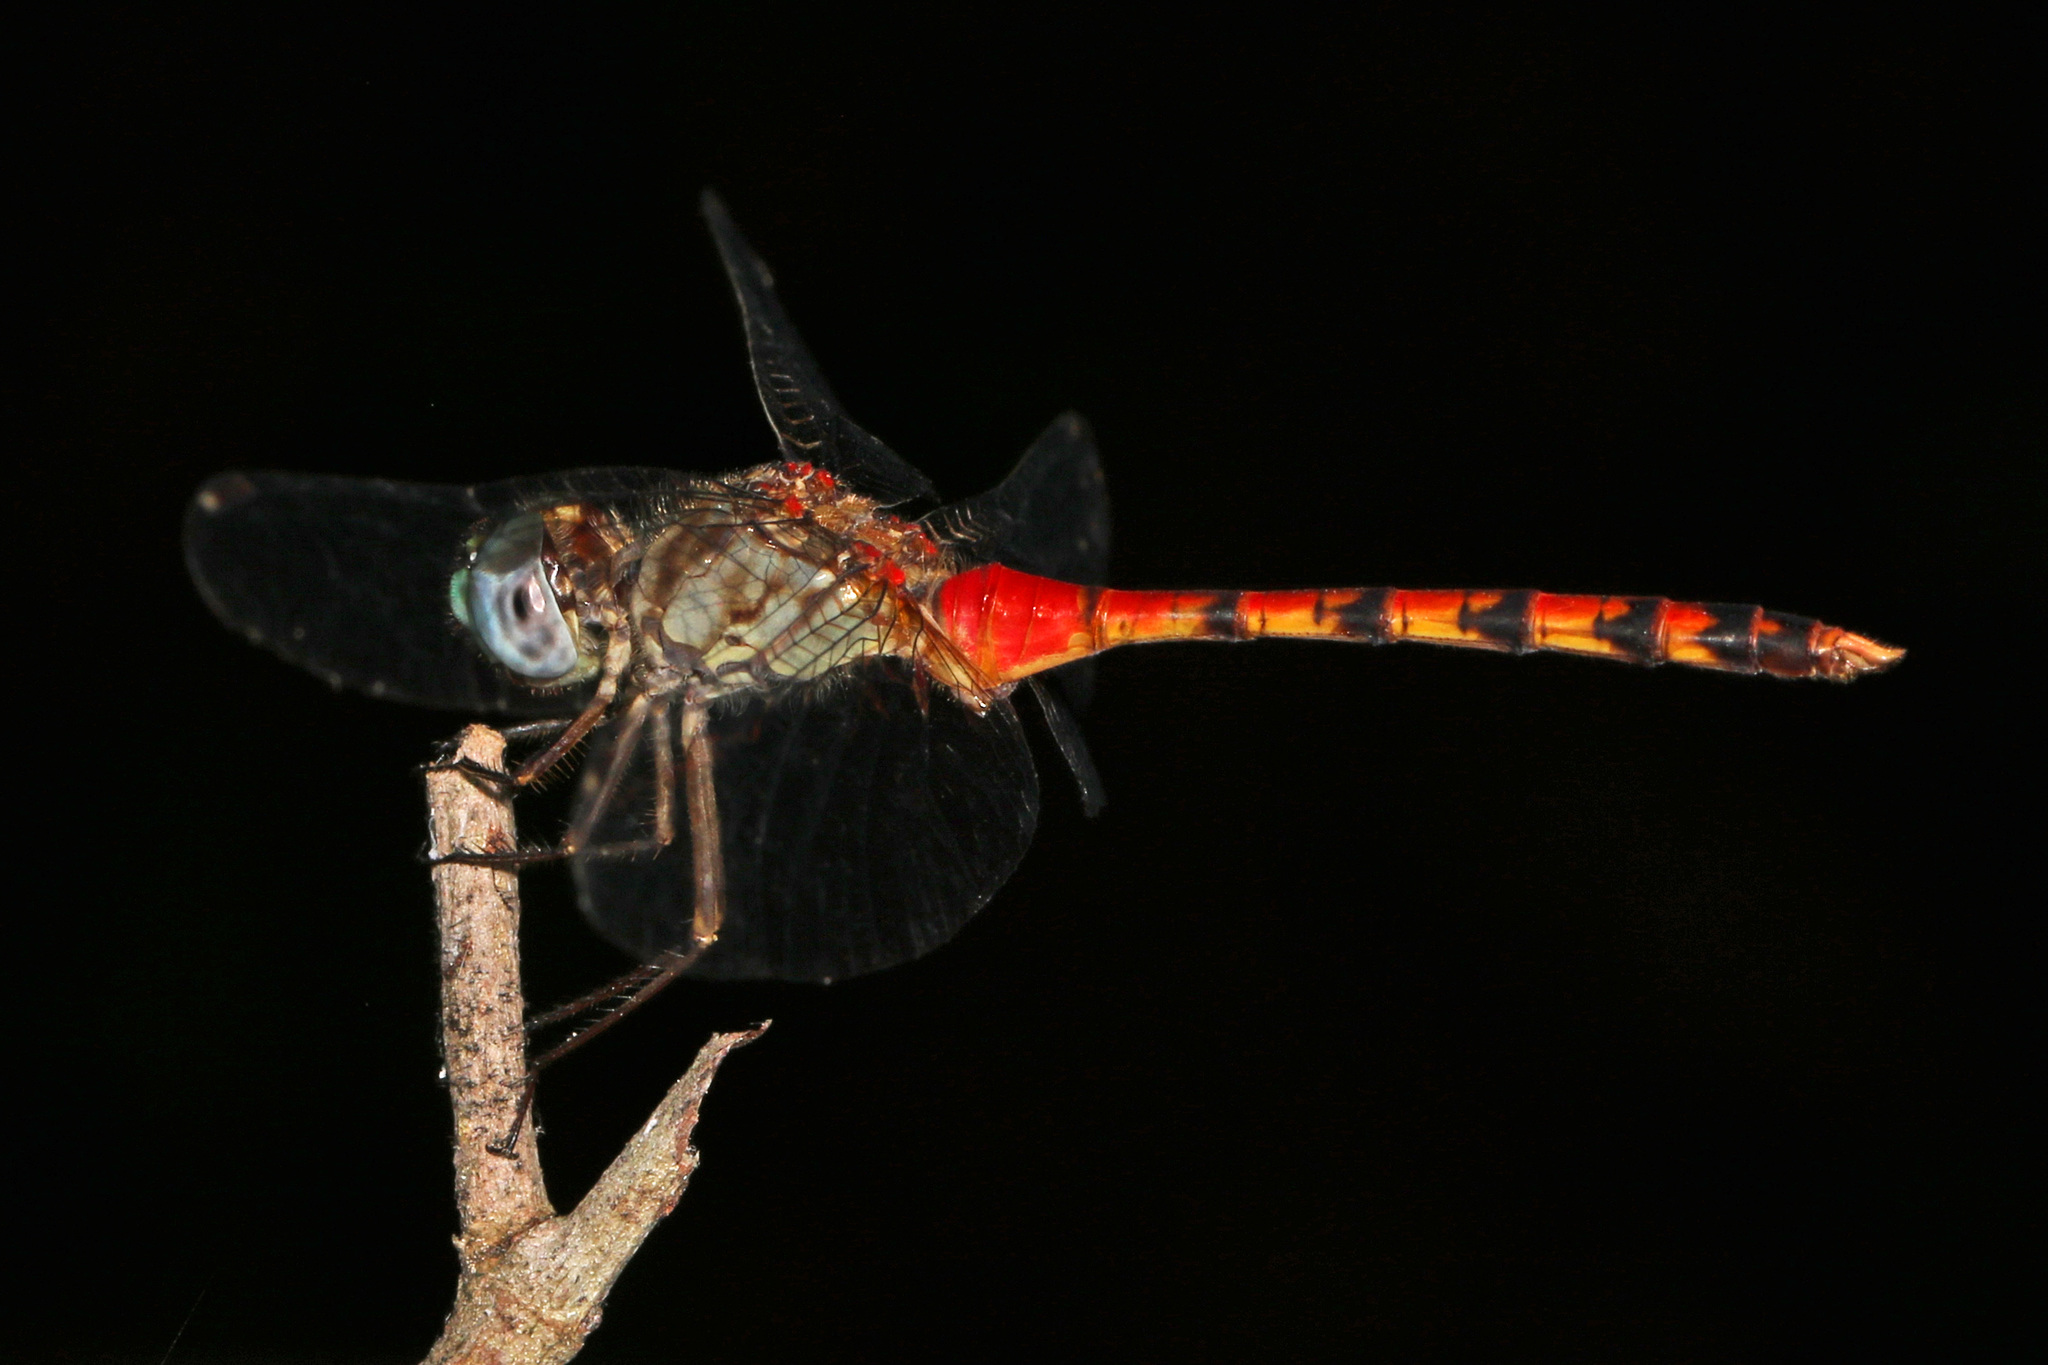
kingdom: Animalia
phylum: Arthropoda
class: Insecta
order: Odonata
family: Libellulidae
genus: Sympetrum
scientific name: Sympetrum ambiguum
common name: Blue-faced meadowhawk
